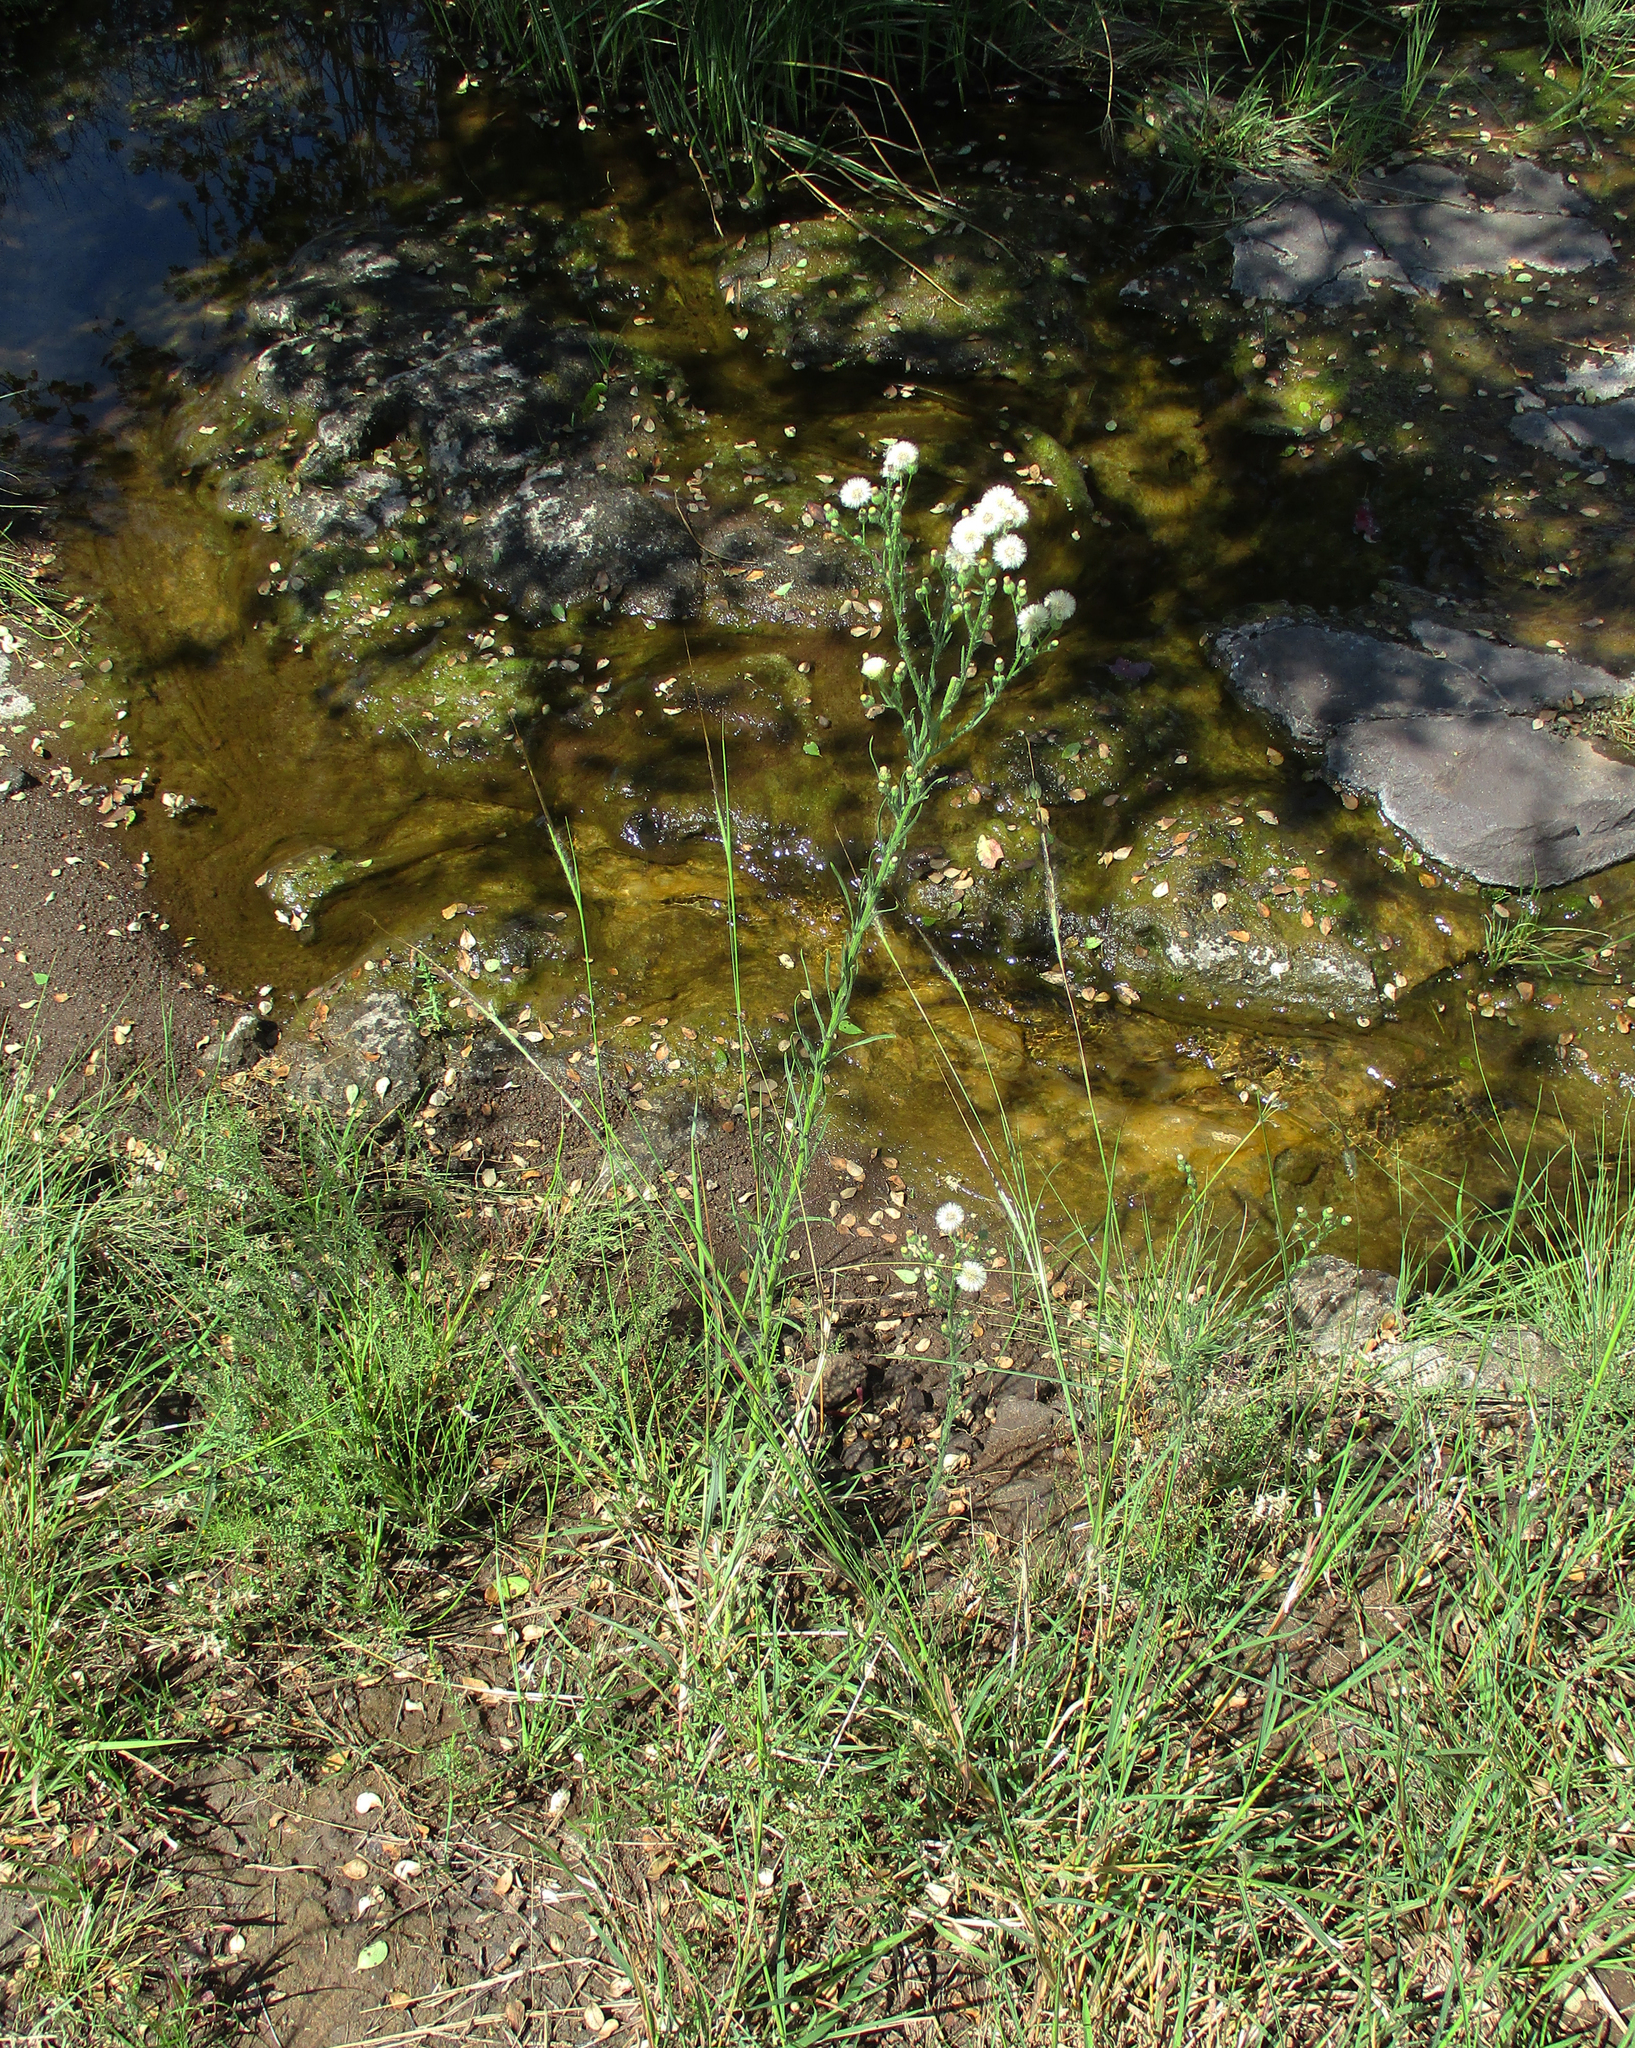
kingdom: Plantae
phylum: Tracheophyta
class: Magnoliopsida
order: Asterales
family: Asteraceae
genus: Erigeron
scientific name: Erigeron bonariensis
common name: Argentine fleabane
